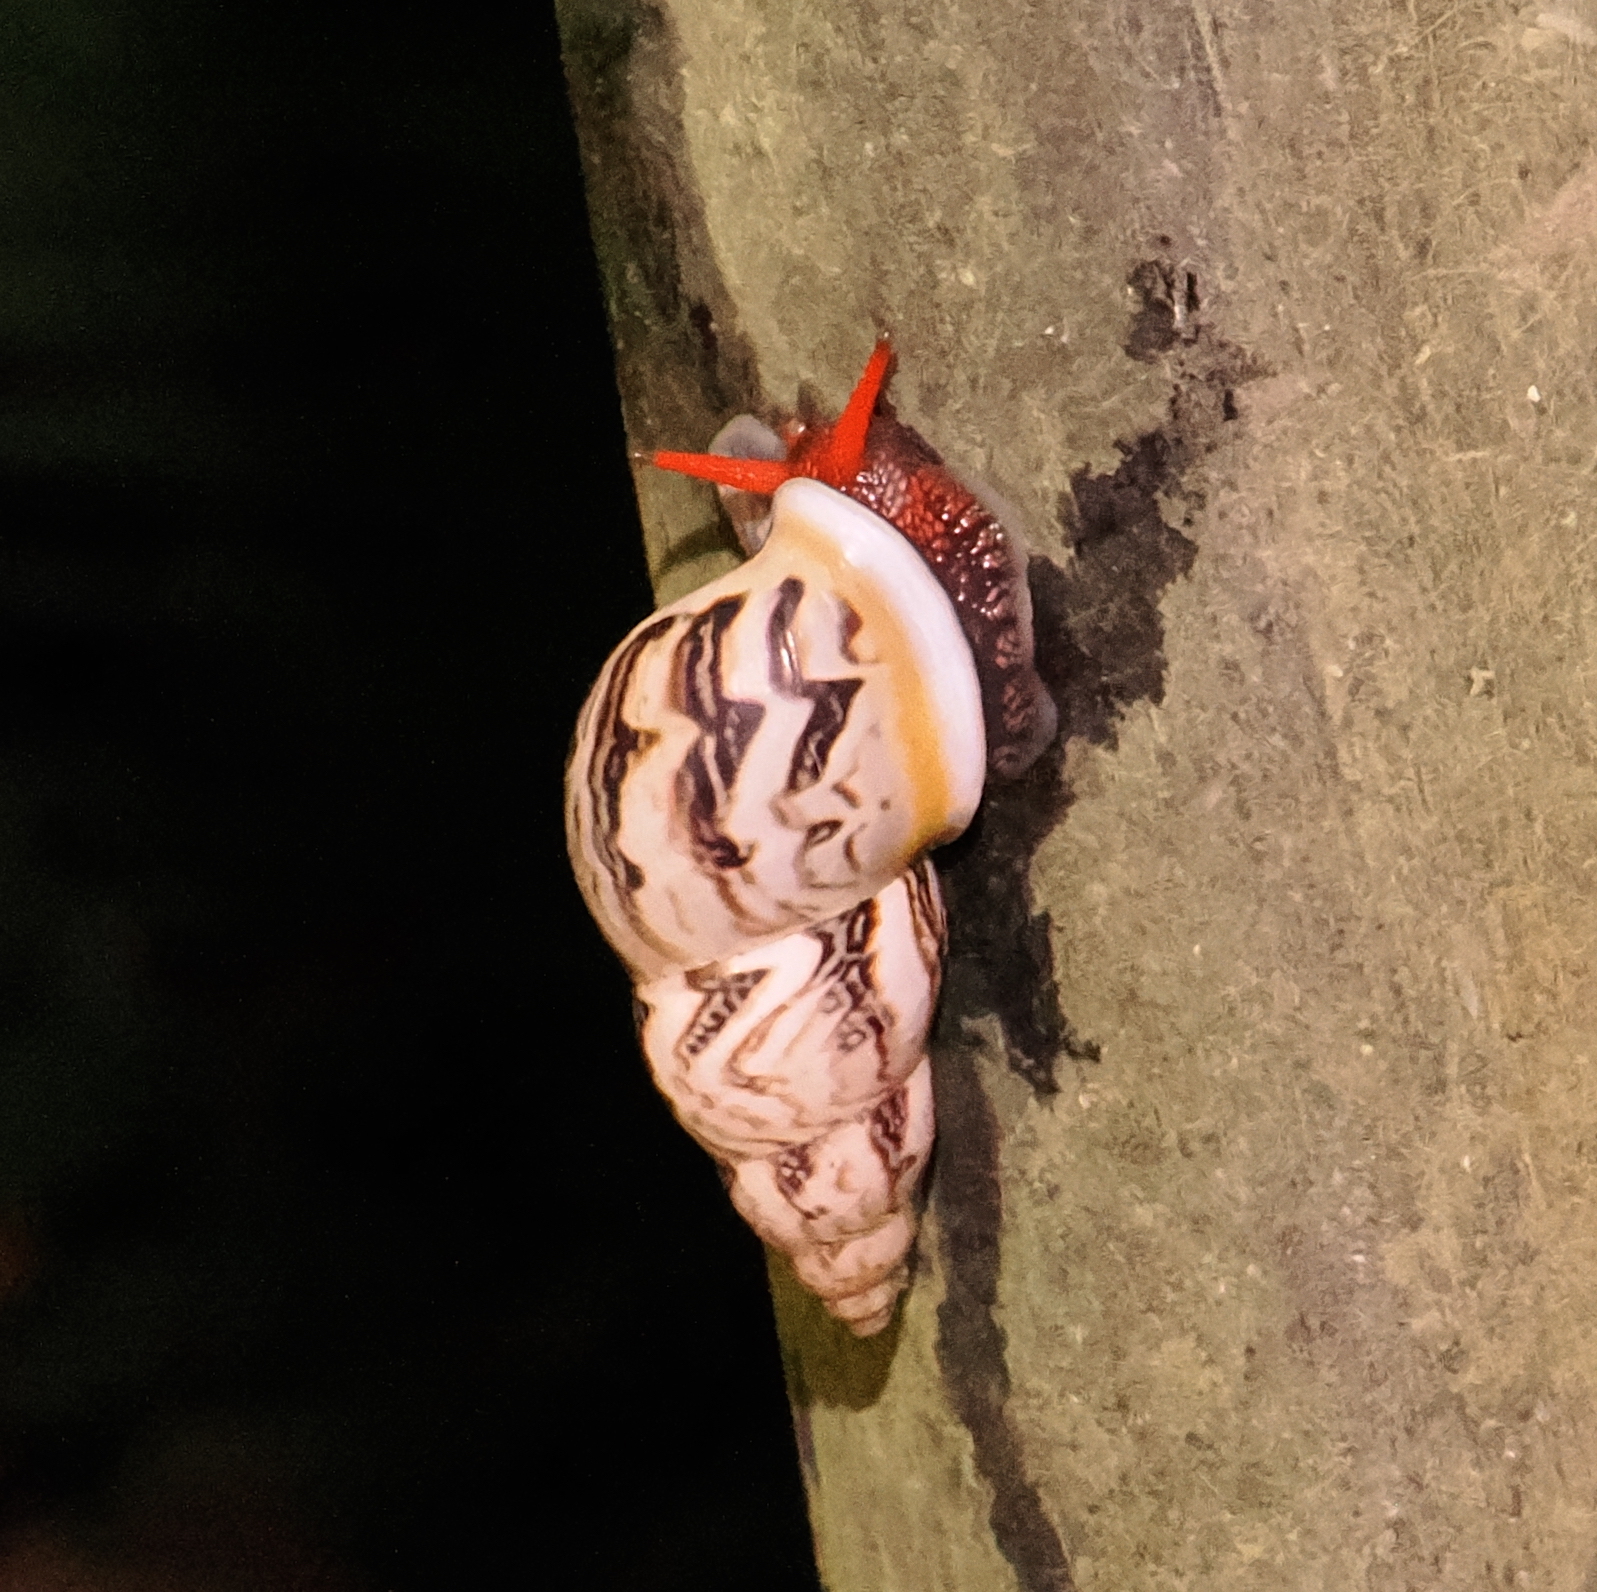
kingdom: Animalia
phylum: Mollusca
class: Gastropoda
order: Stylommatophora
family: Bulimulidae
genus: Drymaeus
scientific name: Drymaeus flexuosus
